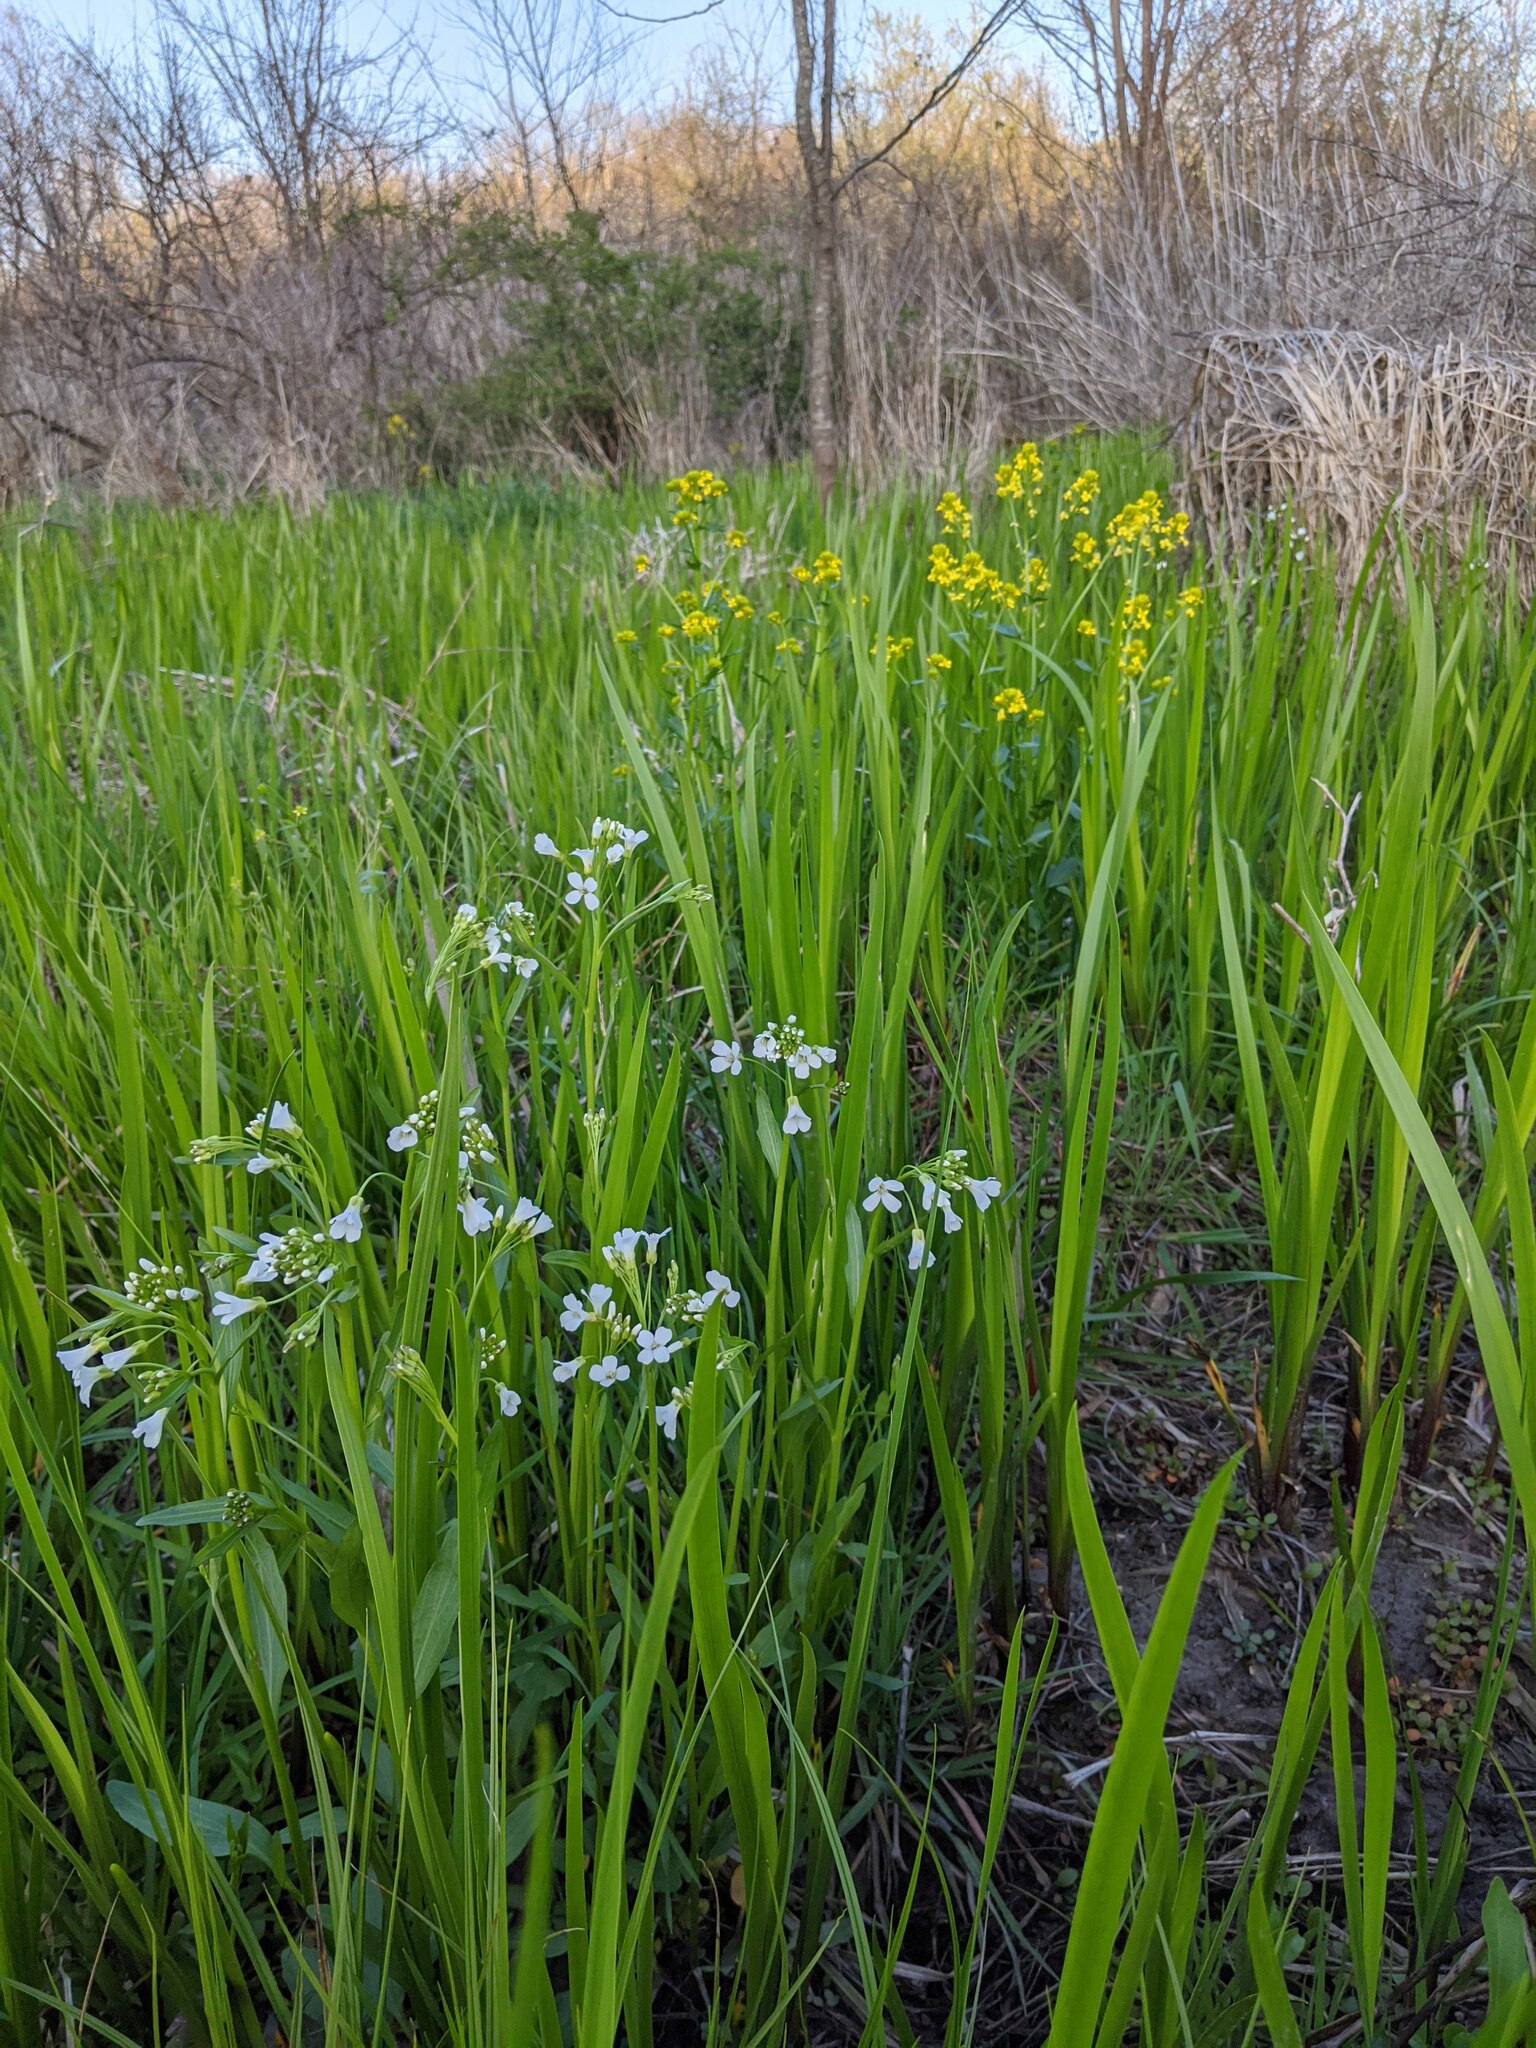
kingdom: Plantae
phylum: Tracheophyta
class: Magnoliopsida
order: Brassicales
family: Brassicaceae
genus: Cardamine
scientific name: Cardamine bulbosa
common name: Spring cress
